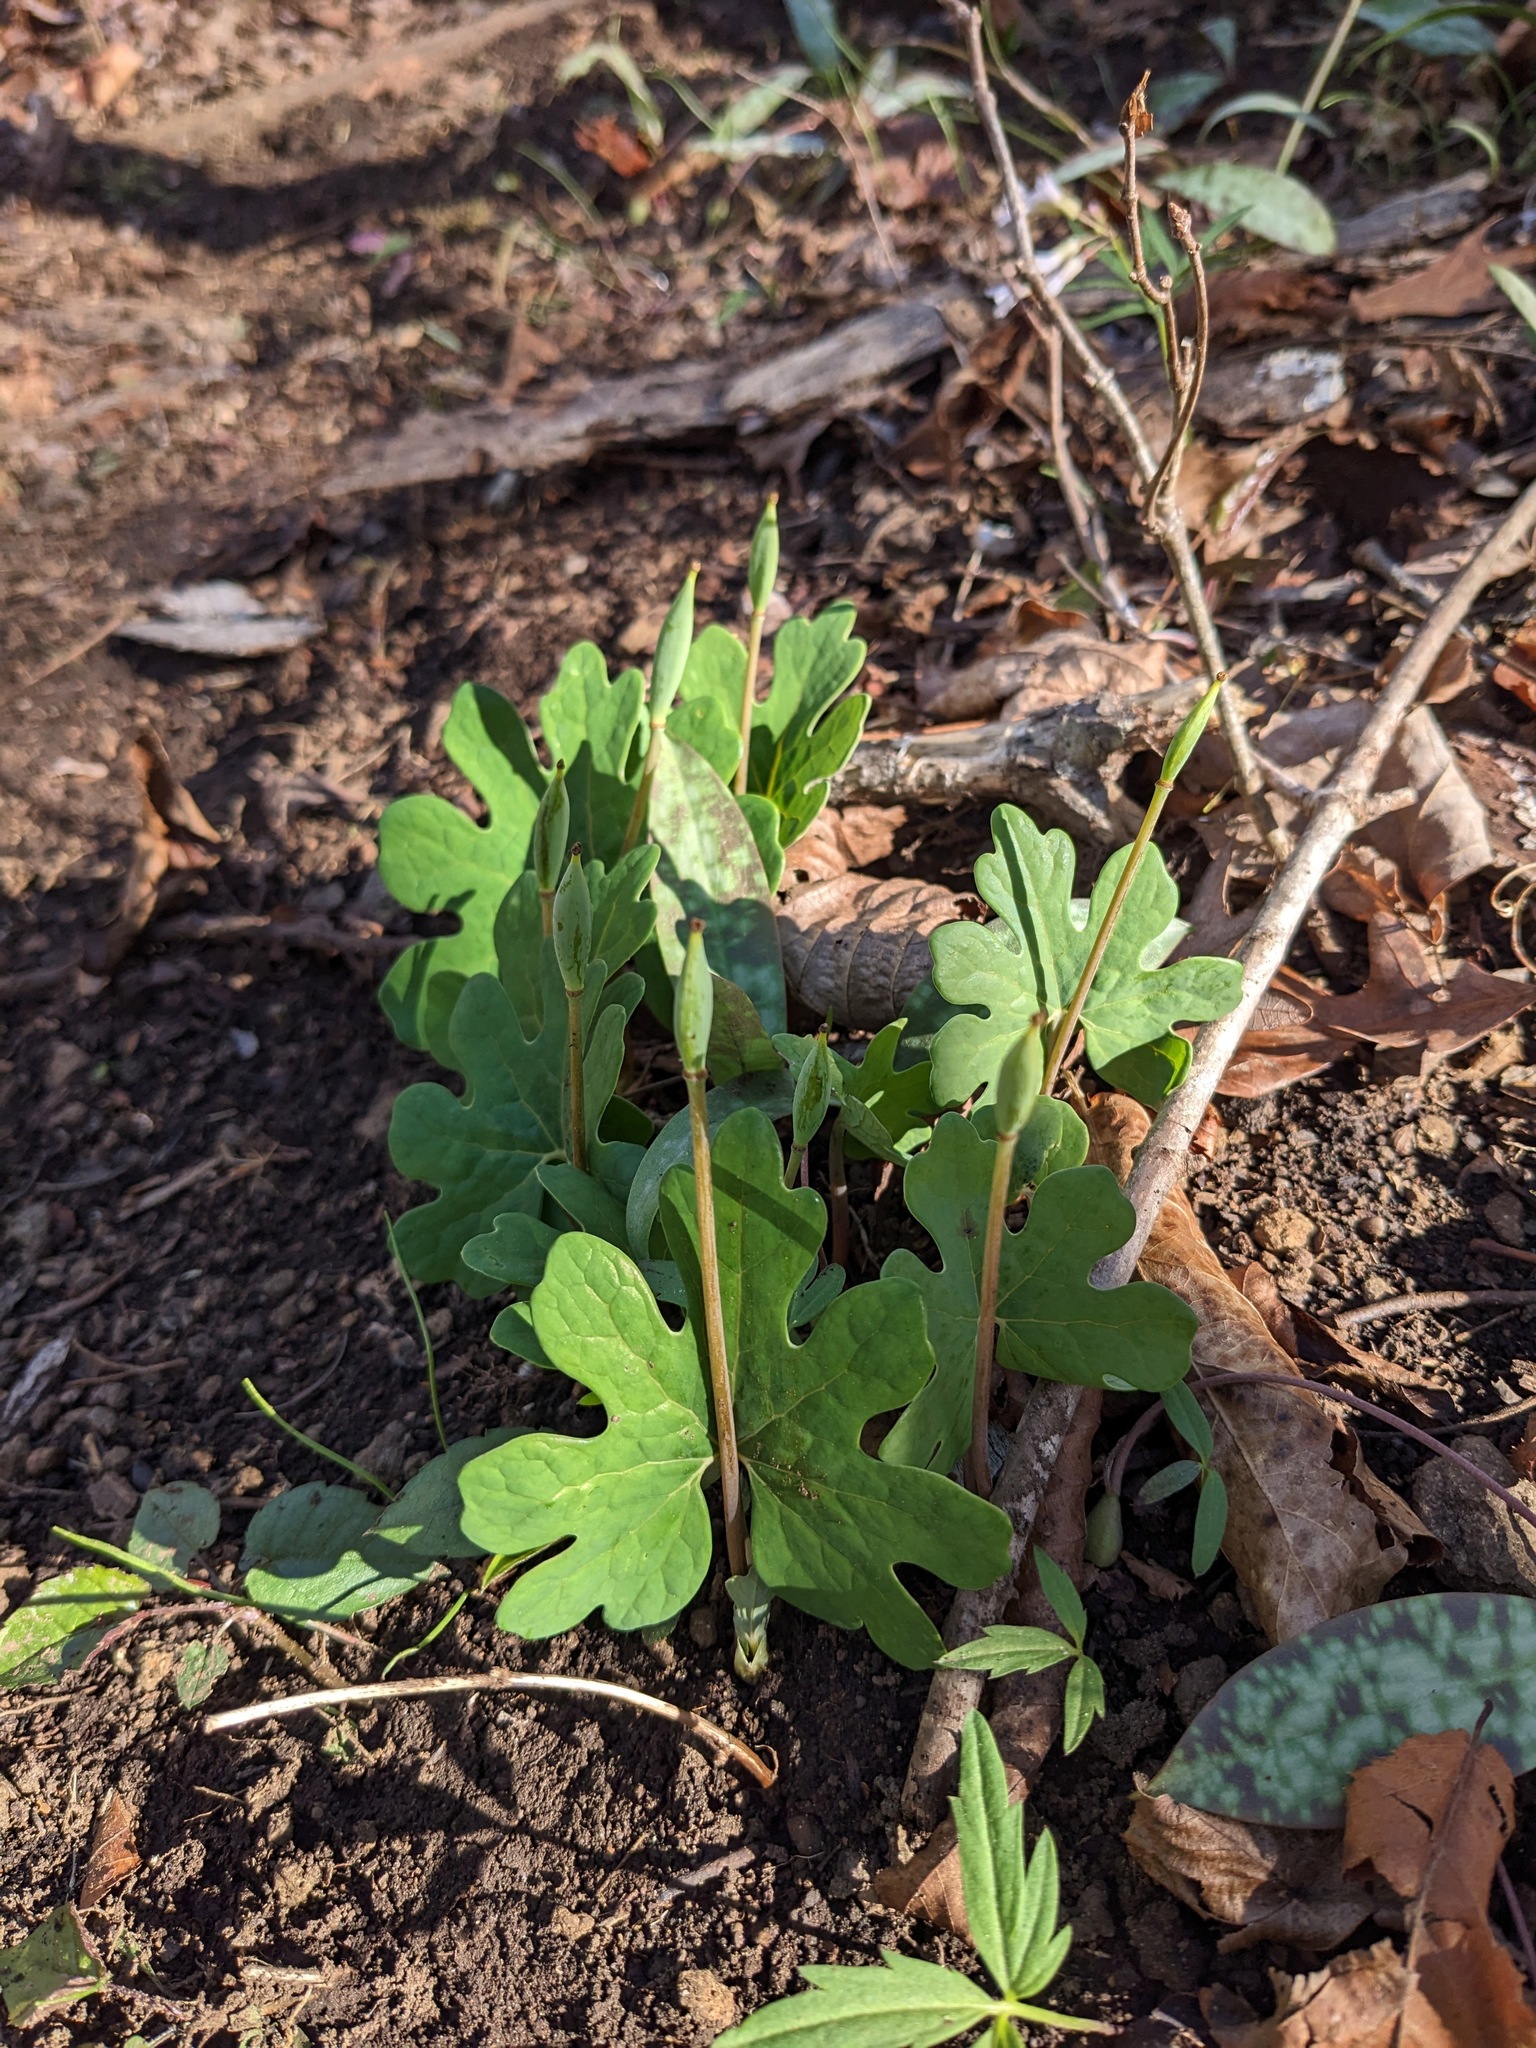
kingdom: Plantae
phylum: Tracheophyta
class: Magnoliopsida
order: Ranunculales
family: Papaveraceae
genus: Sanguinaria
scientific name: Sanguinaria canadensis
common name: Bloodroot
